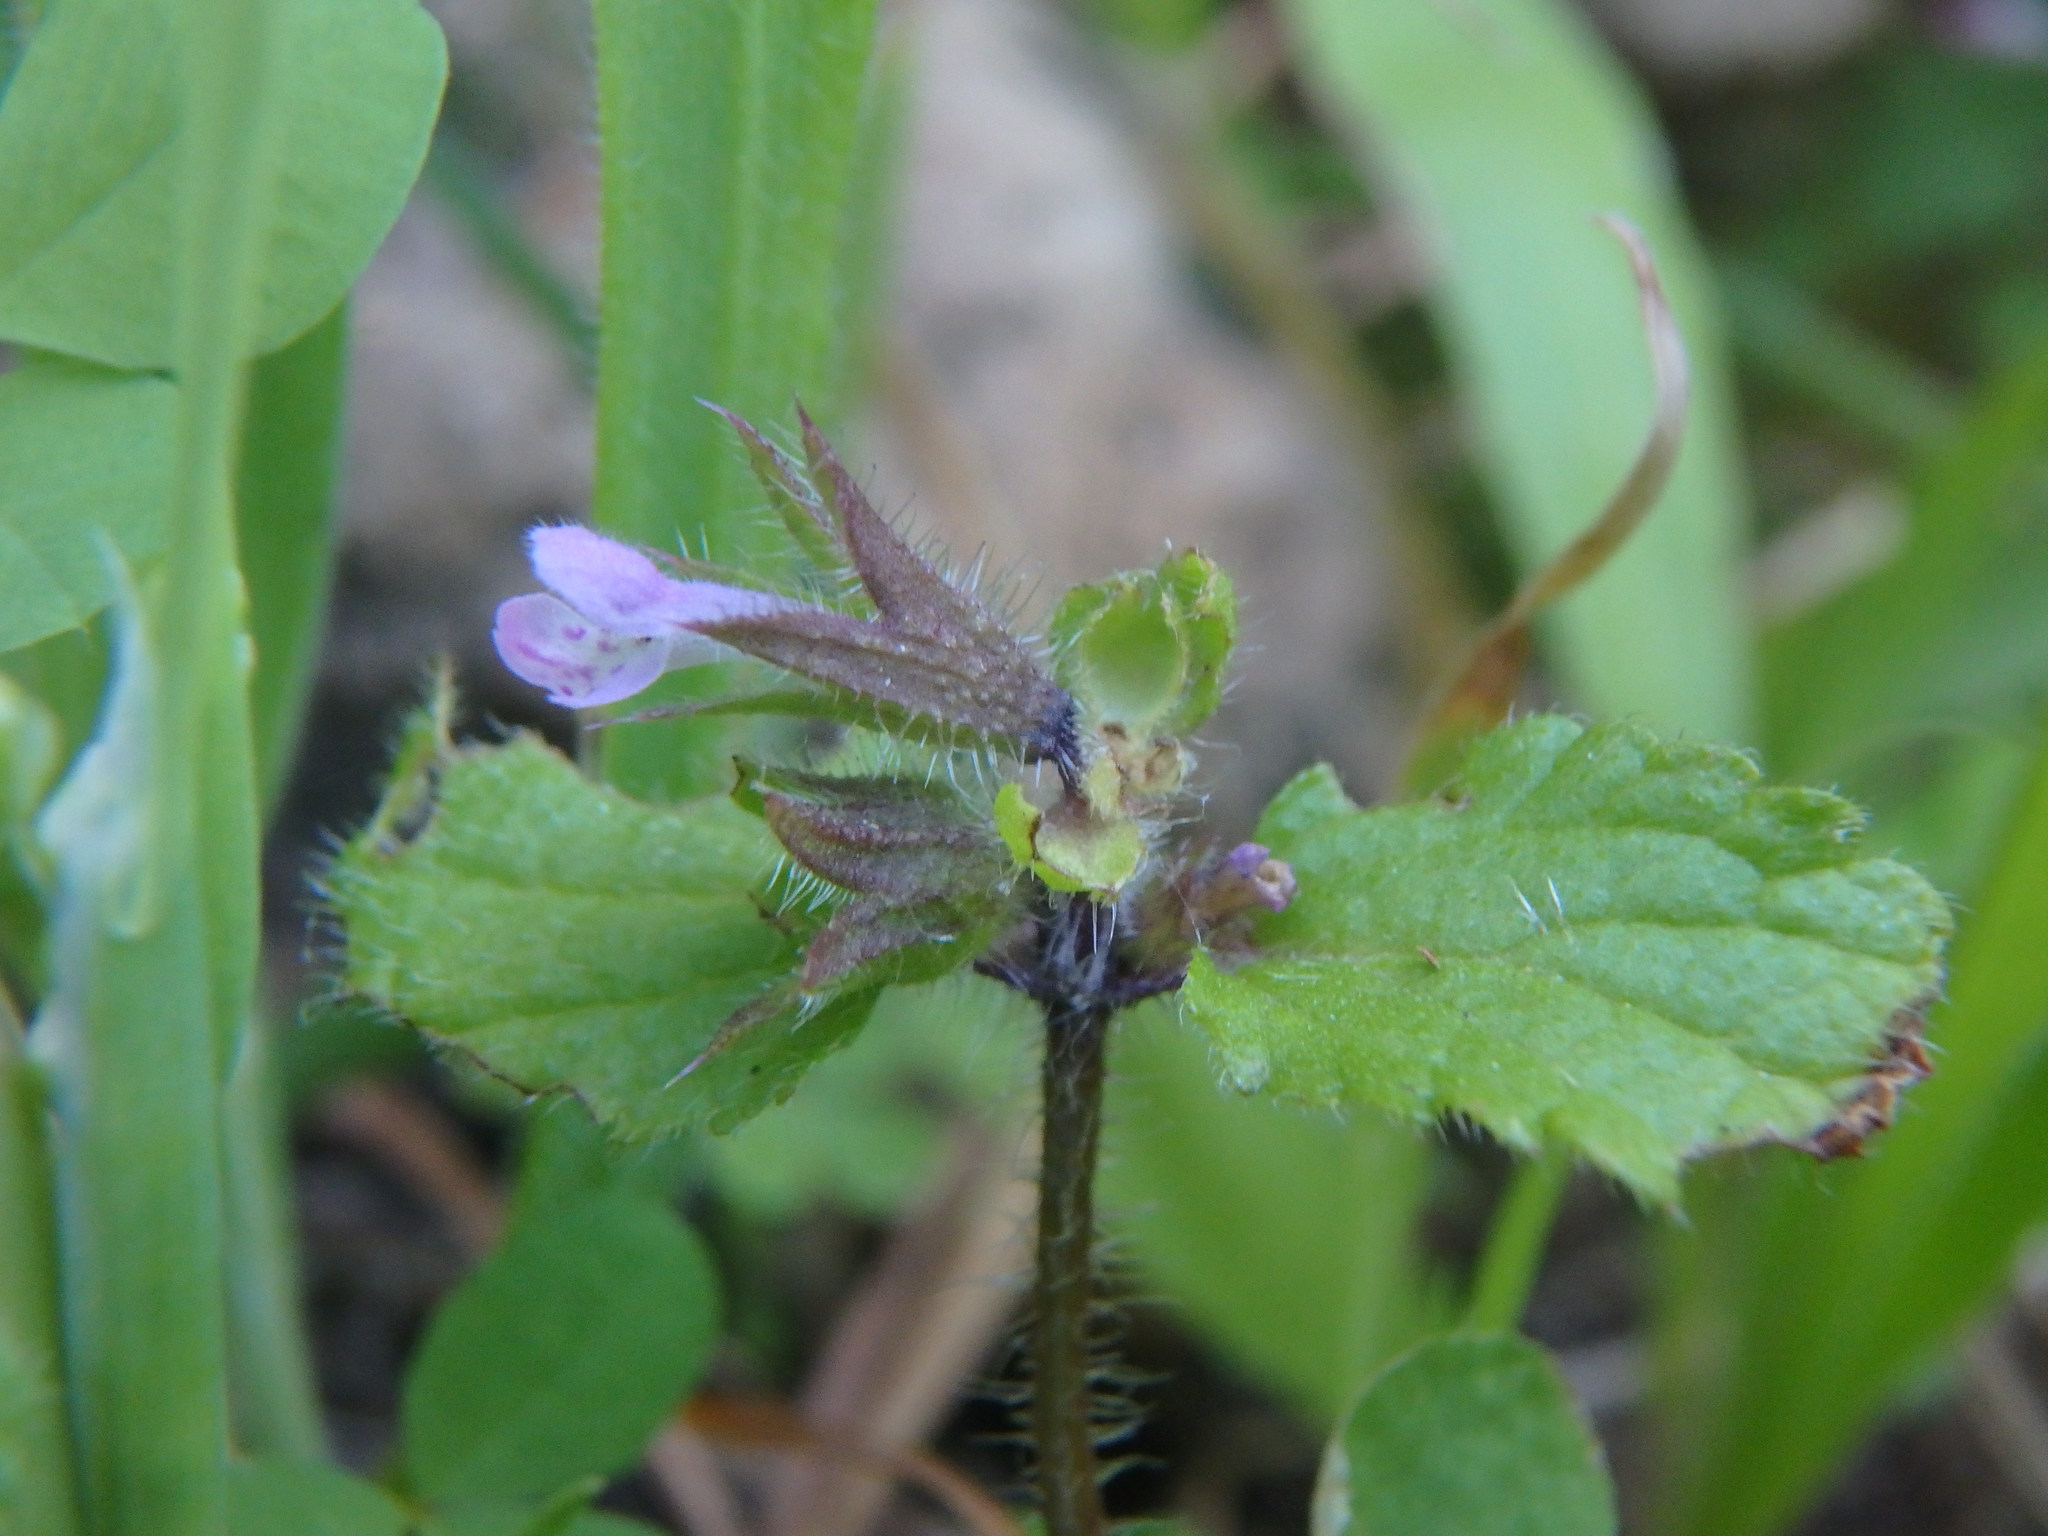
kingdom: Plantae
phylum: Tracheophyta
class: Magnoliopsida
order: Lamiales
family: Lamiaceae
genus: Stachys
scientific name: Stachys arvensis
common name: Field woundwort
